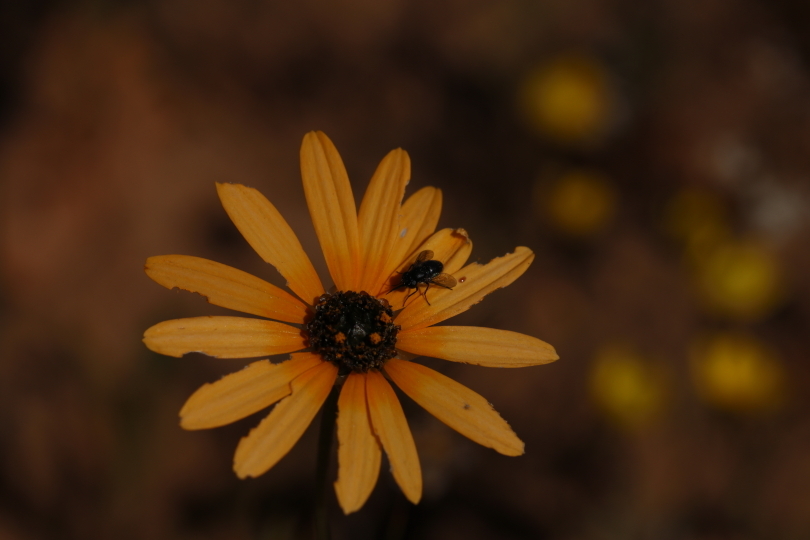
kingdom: Animalia
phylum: Arthropoda
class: Insecta
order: Diptera
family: Bombyliidae
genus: Megapalpus
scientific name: Megapalpus capensis
